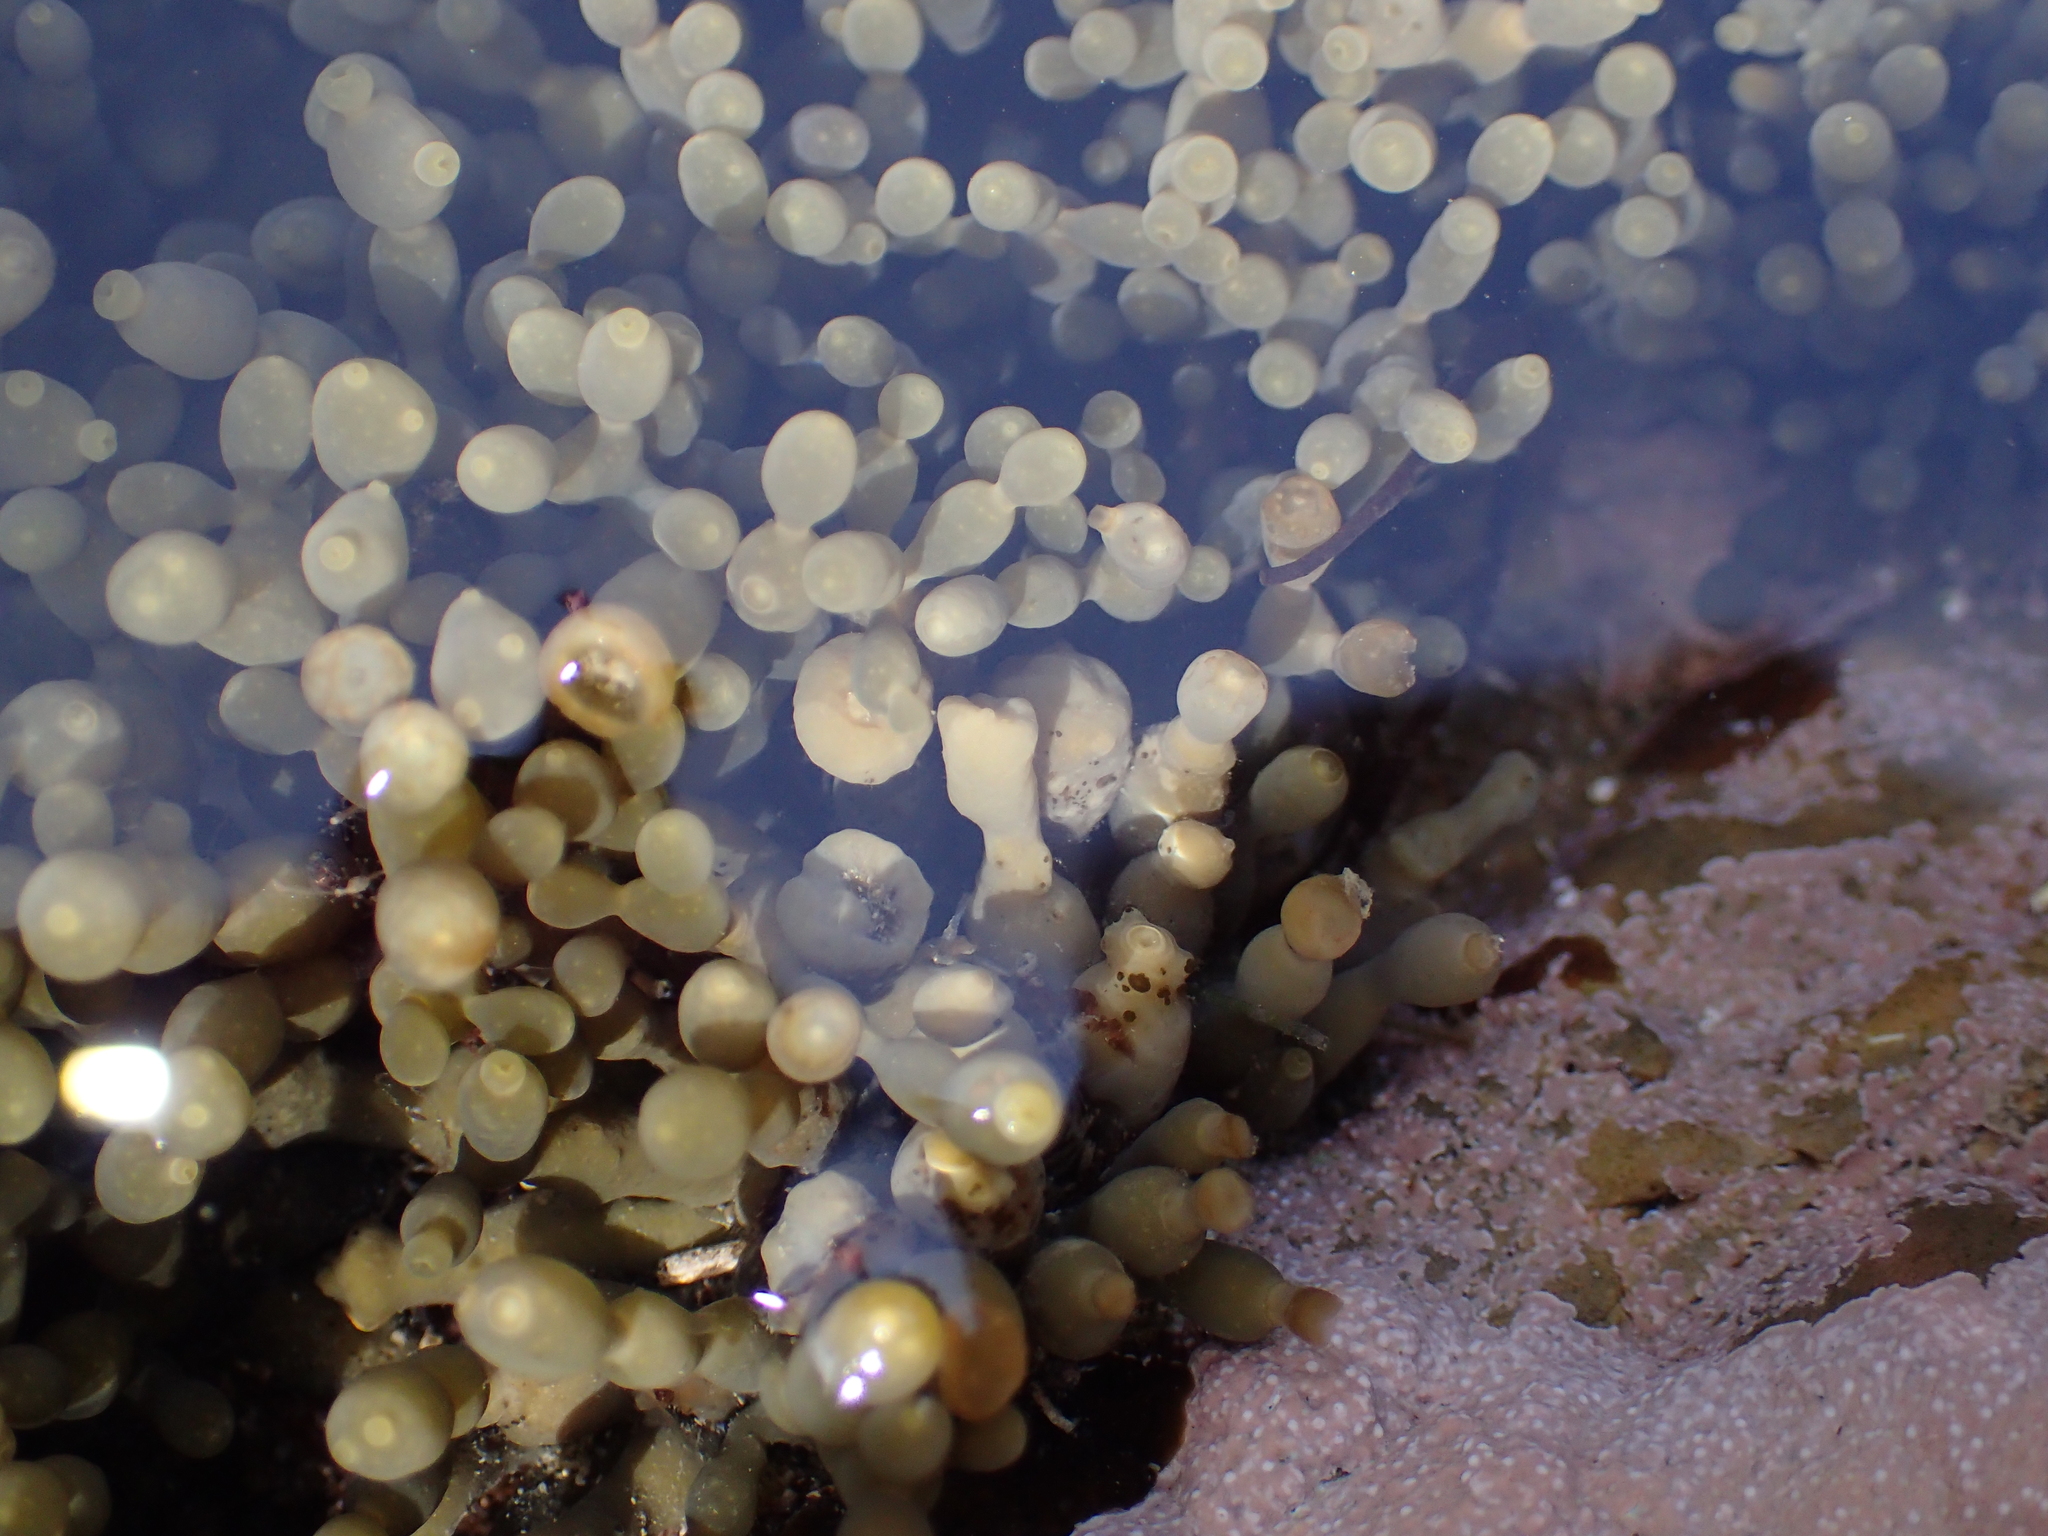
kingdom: Chromista
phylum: Ochrophyta
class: Phaeophyceae
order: Fucales
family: Hormosiraceae
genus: Hormosira
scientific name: Hormosira banksii
